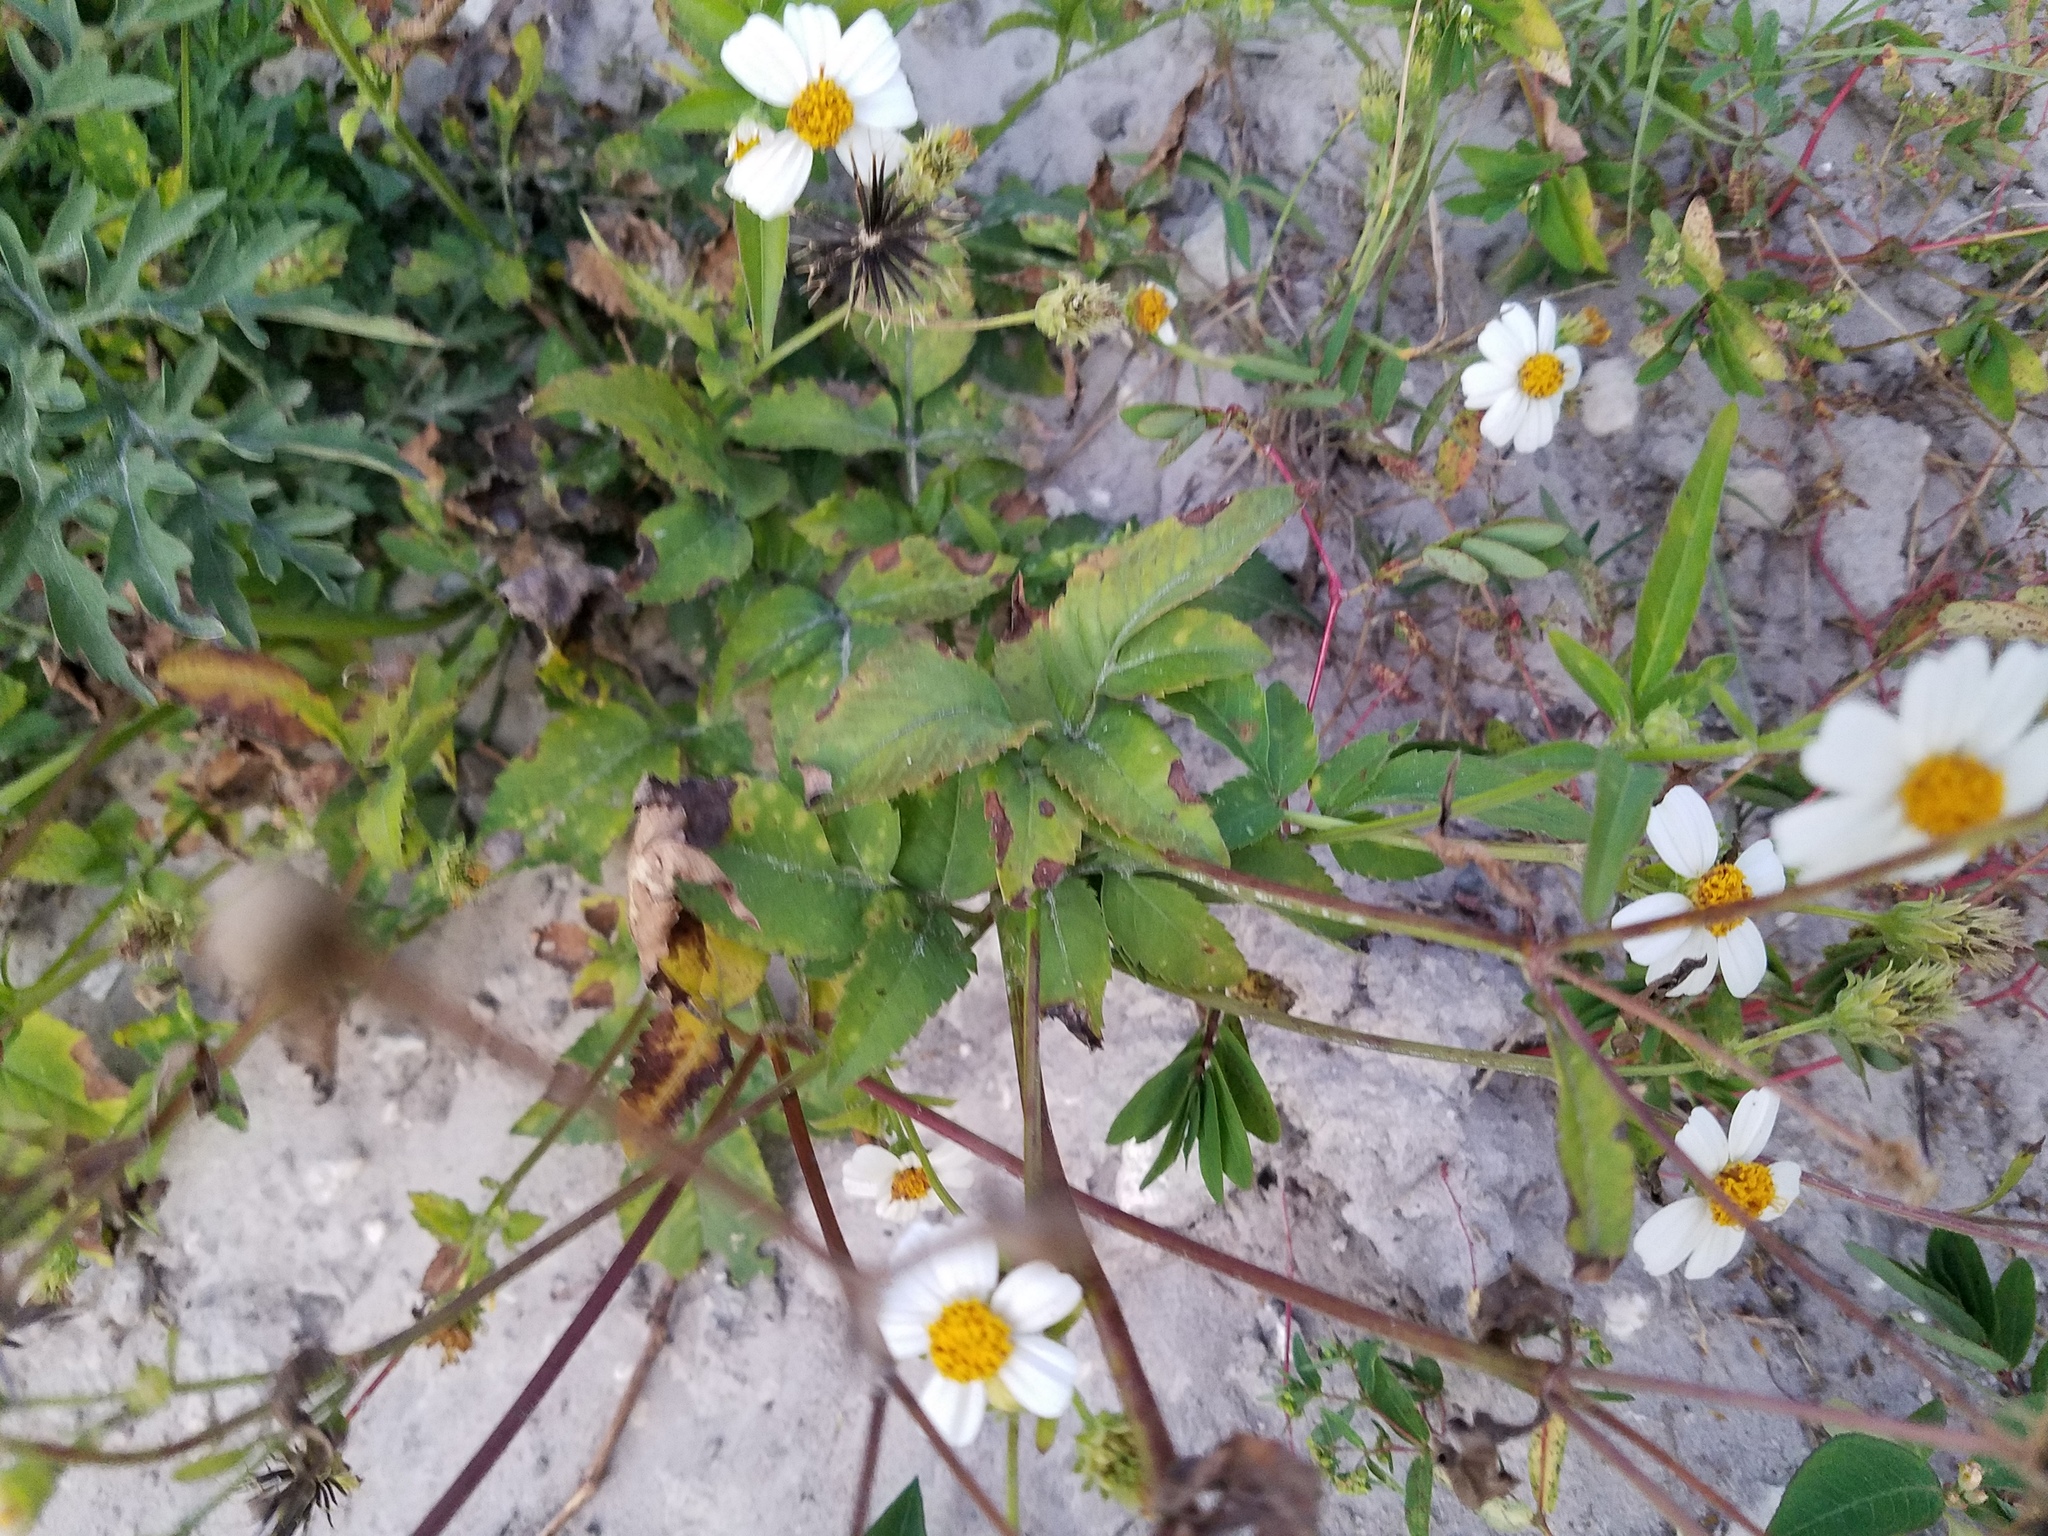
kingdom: Plantae
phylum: Tracheophyta
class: Magnoliopsida
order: Asterales
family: Asteraceae
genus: Bidens
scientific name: Bidens alba
